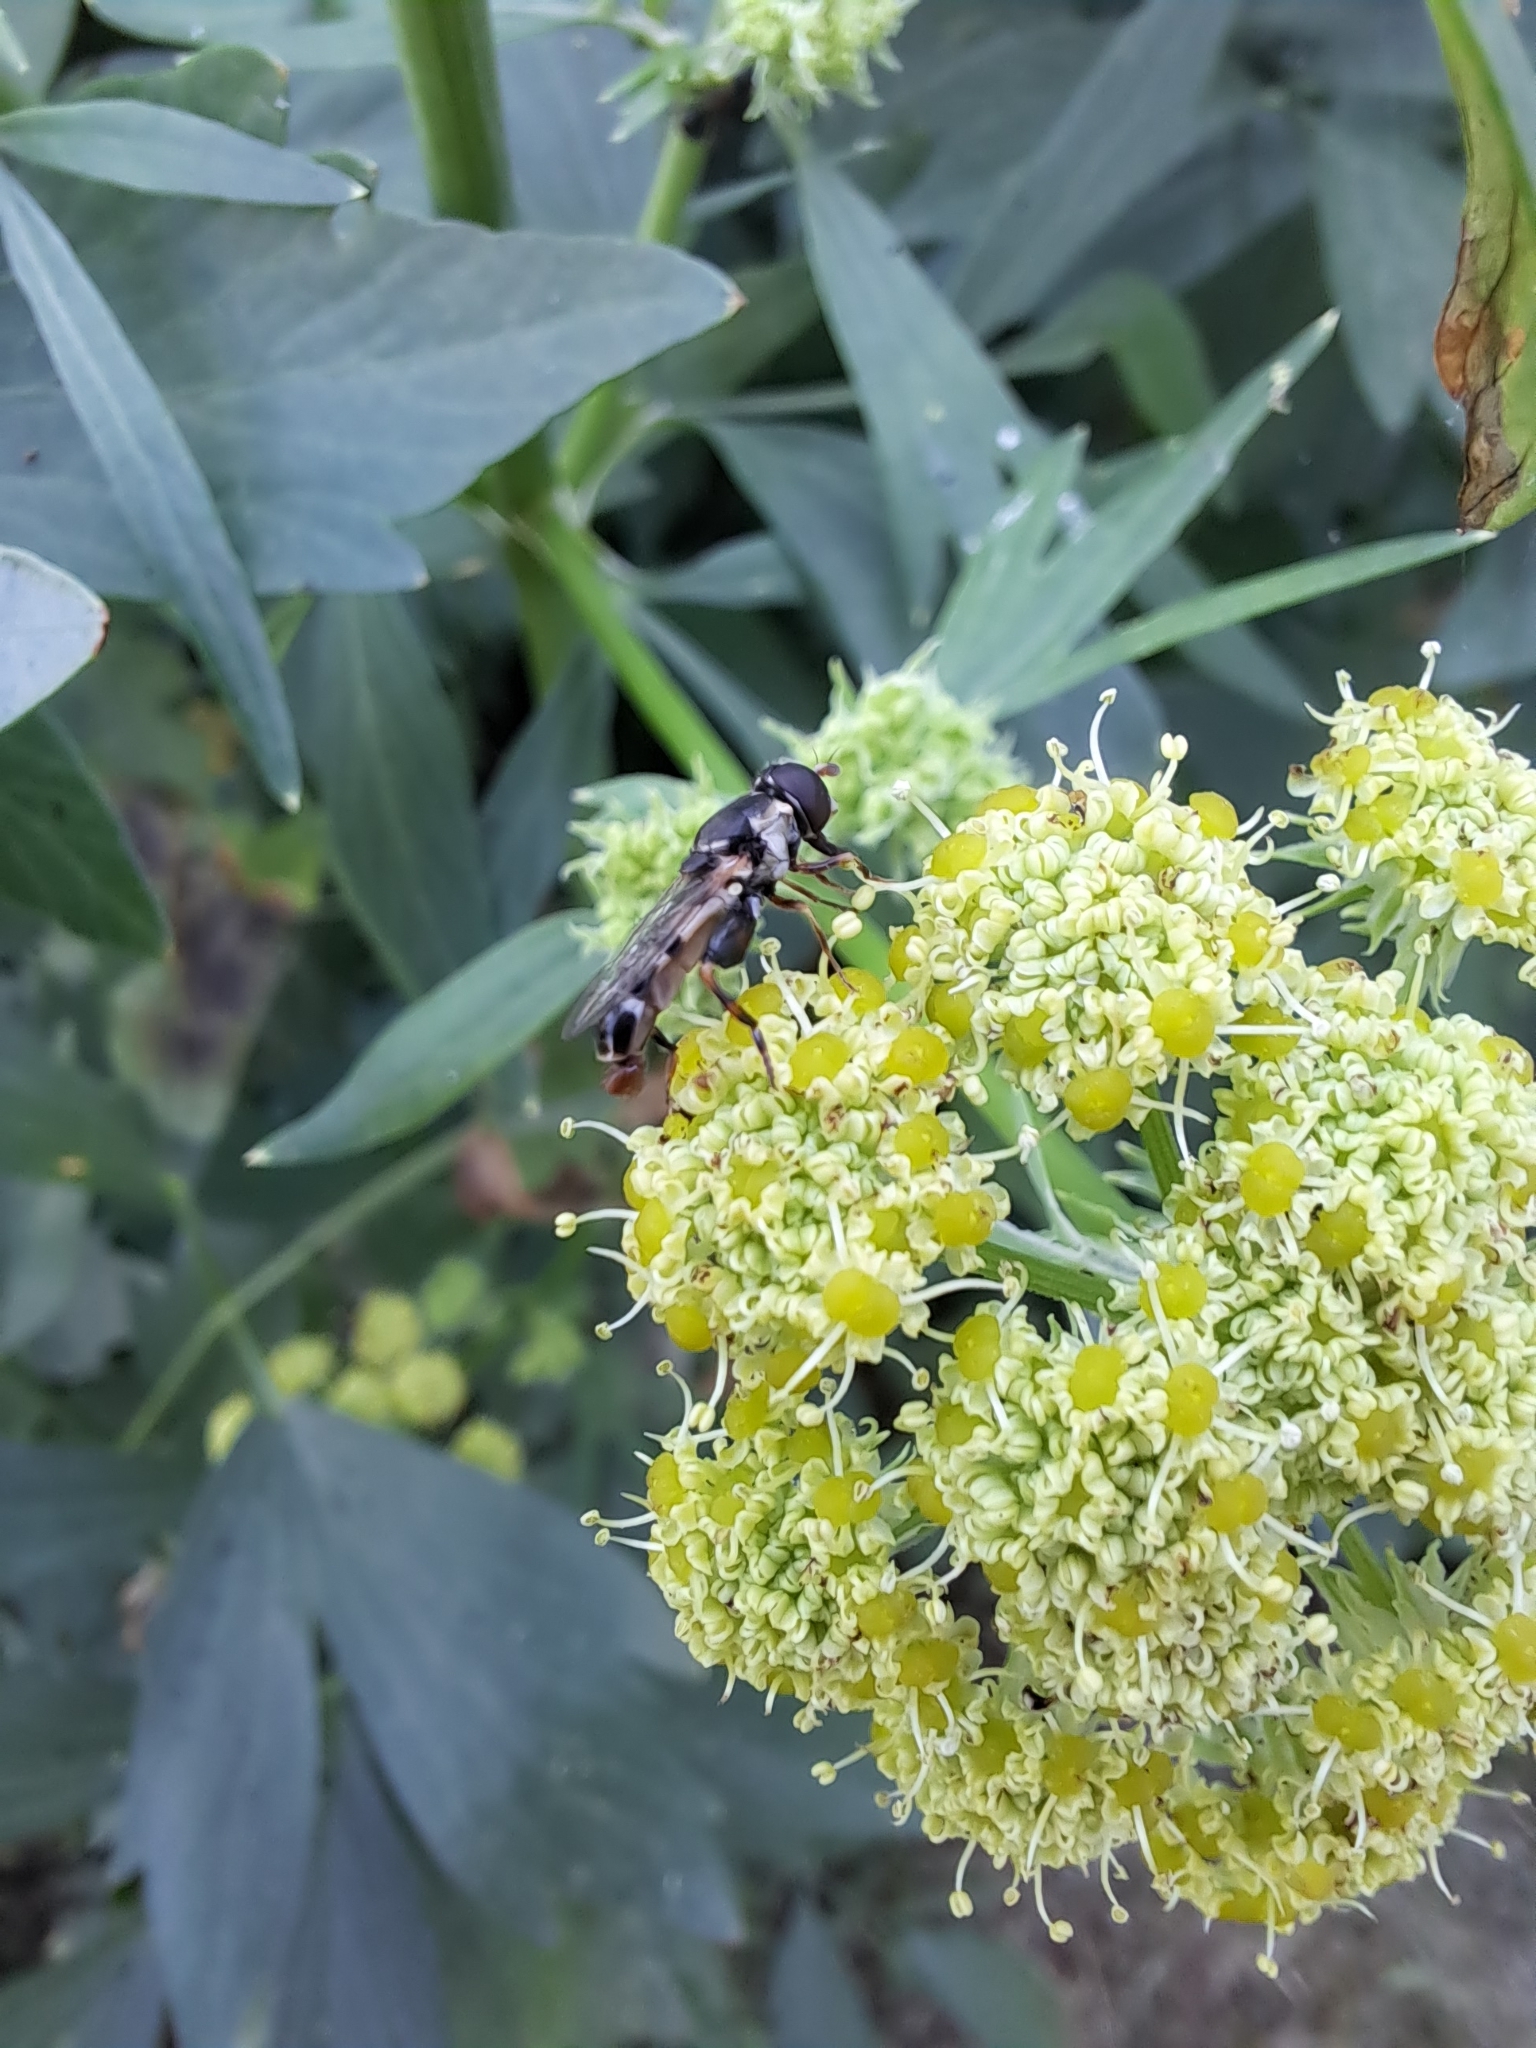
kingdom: Animalia
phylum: Arthropoda
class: Insecta
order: Diptera
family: Syrphidae
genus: Syritta
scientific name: Syritta pipiens
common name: Hover fly
